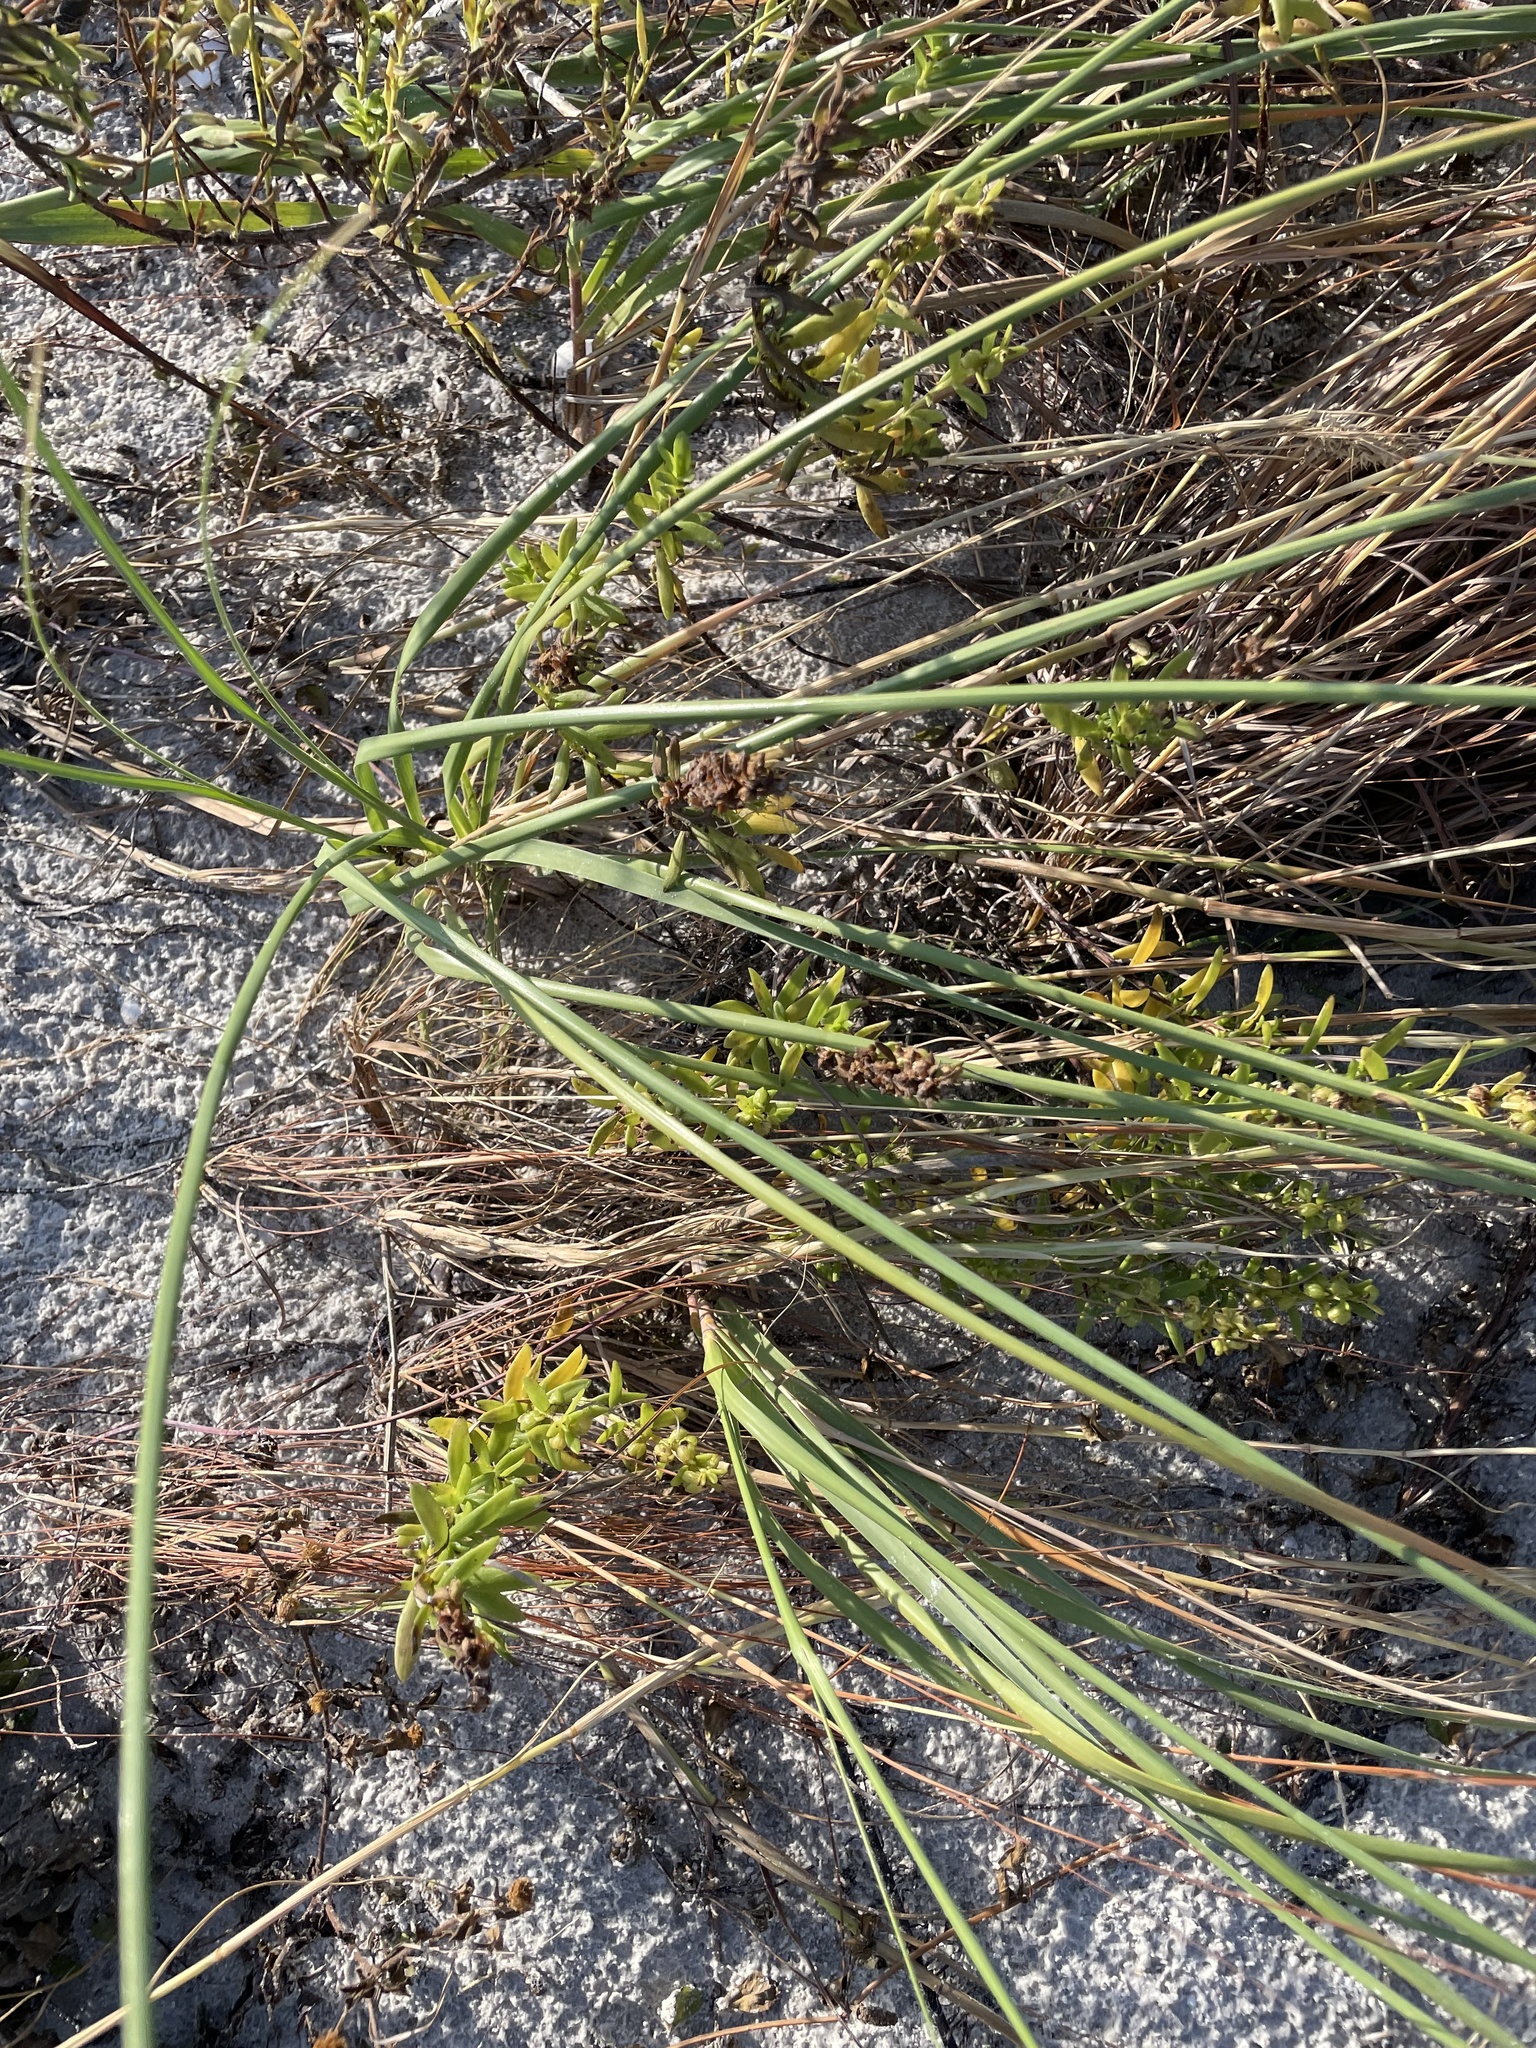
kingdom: Plantae
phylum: Tracheophyta
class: Magnoliopsida
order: Asterales
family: Asteraceae
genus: Iva
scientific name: Iva imbricata
